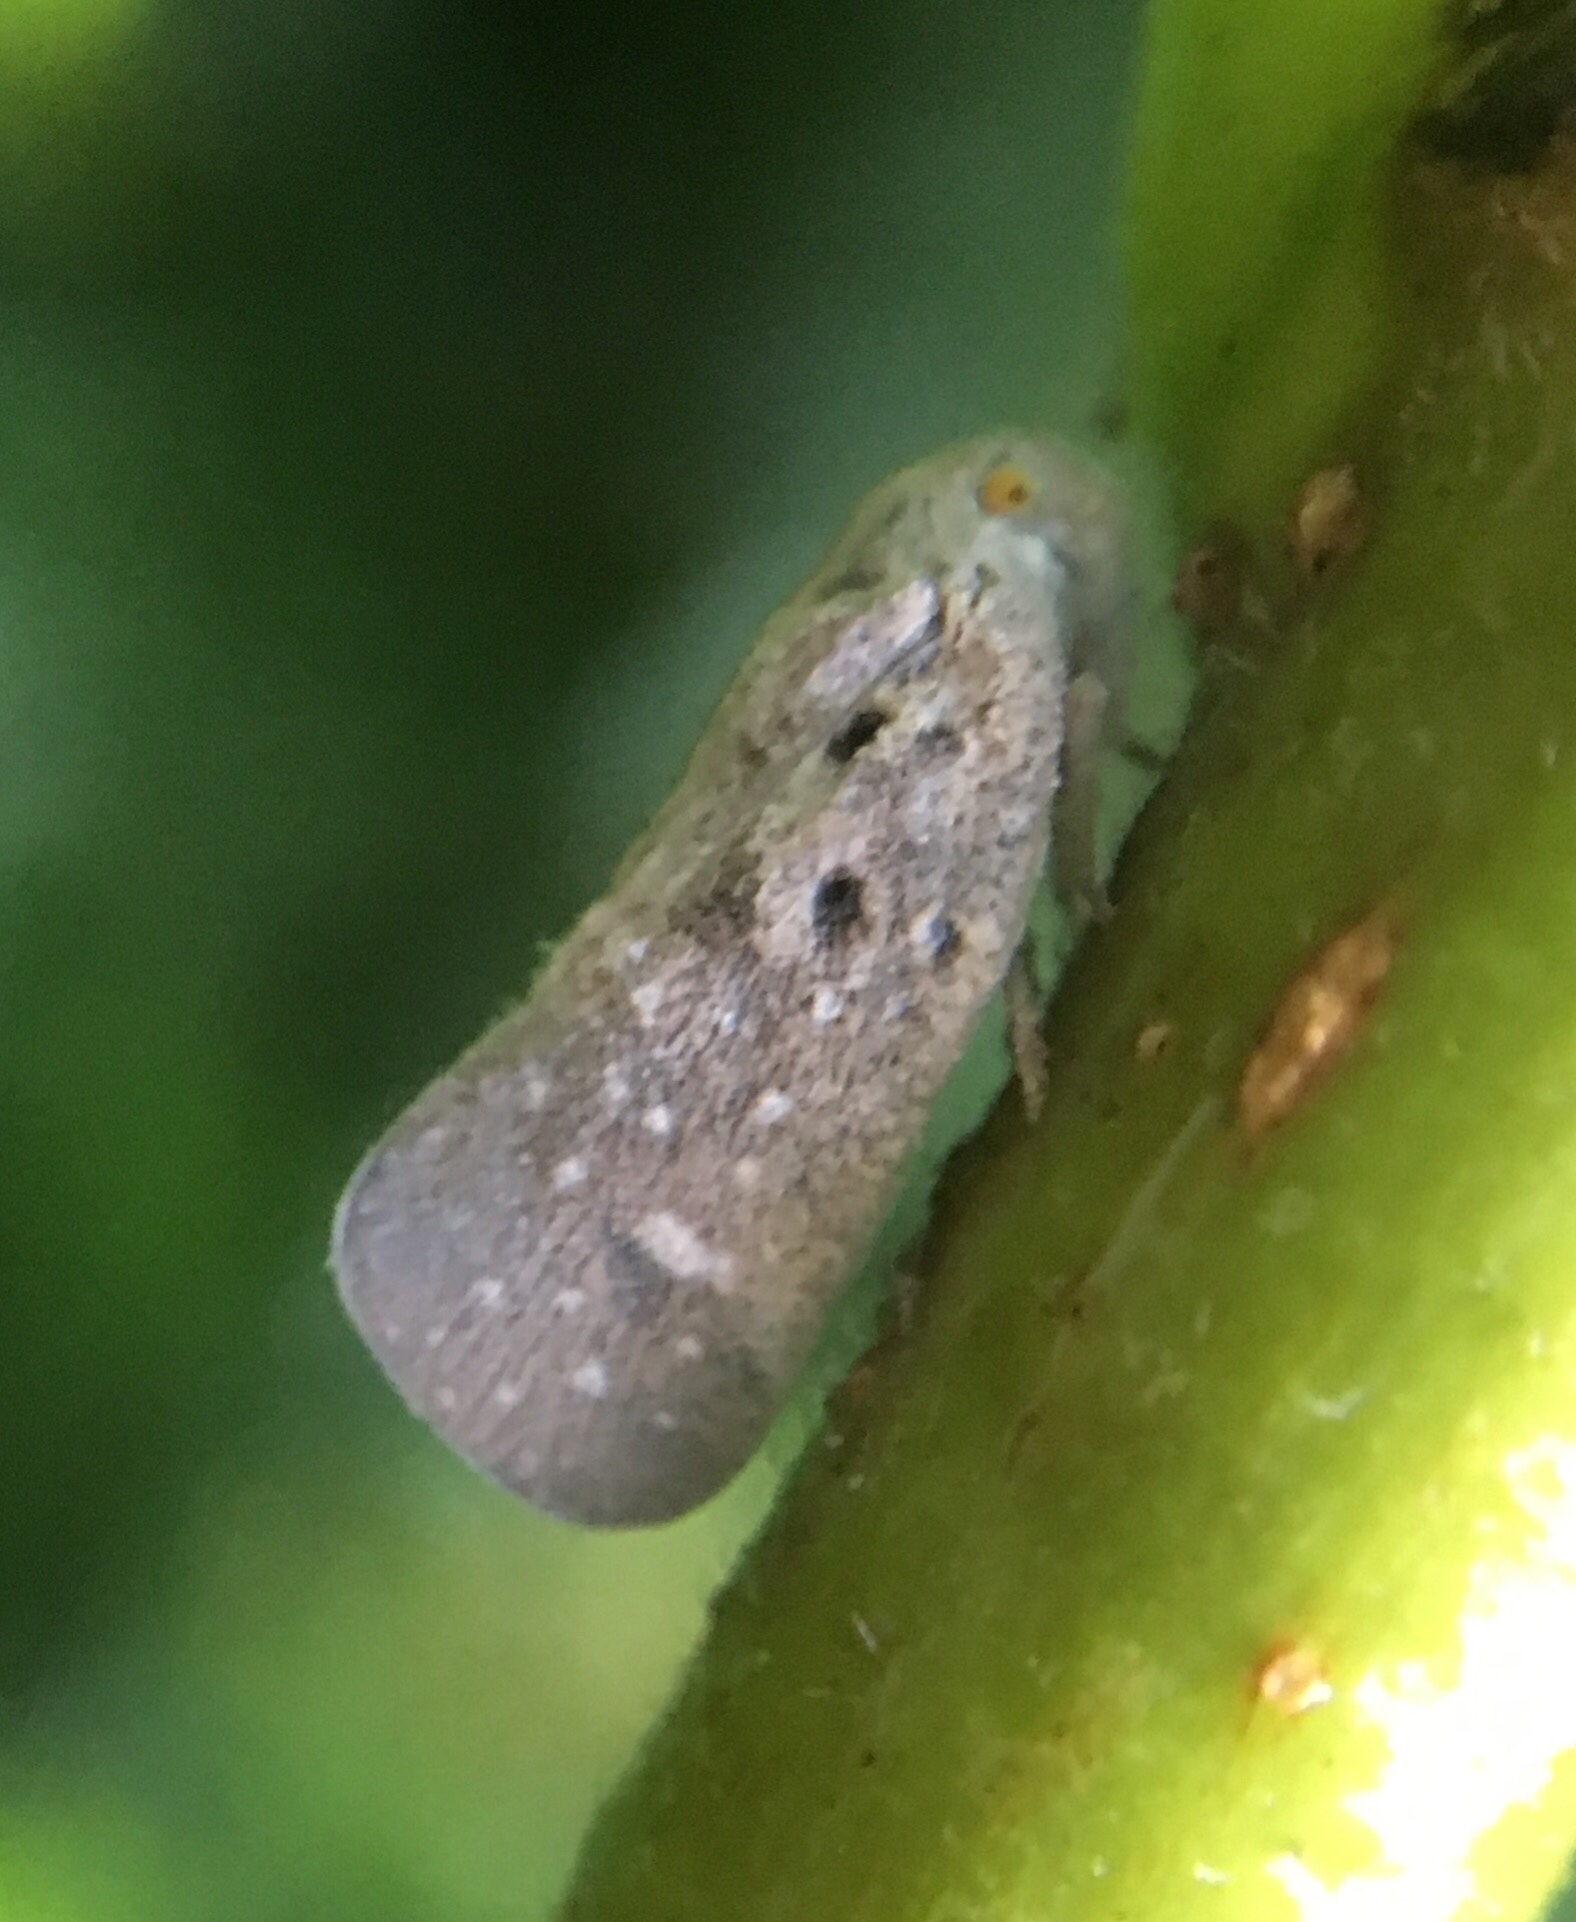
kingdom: Animalia
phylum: Arthropoda
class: Insecta
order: Hemiptera
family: Flatidae
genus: Metcalfa
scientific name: Metcalfa pruinosa
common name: Citrus flatid planthopper
